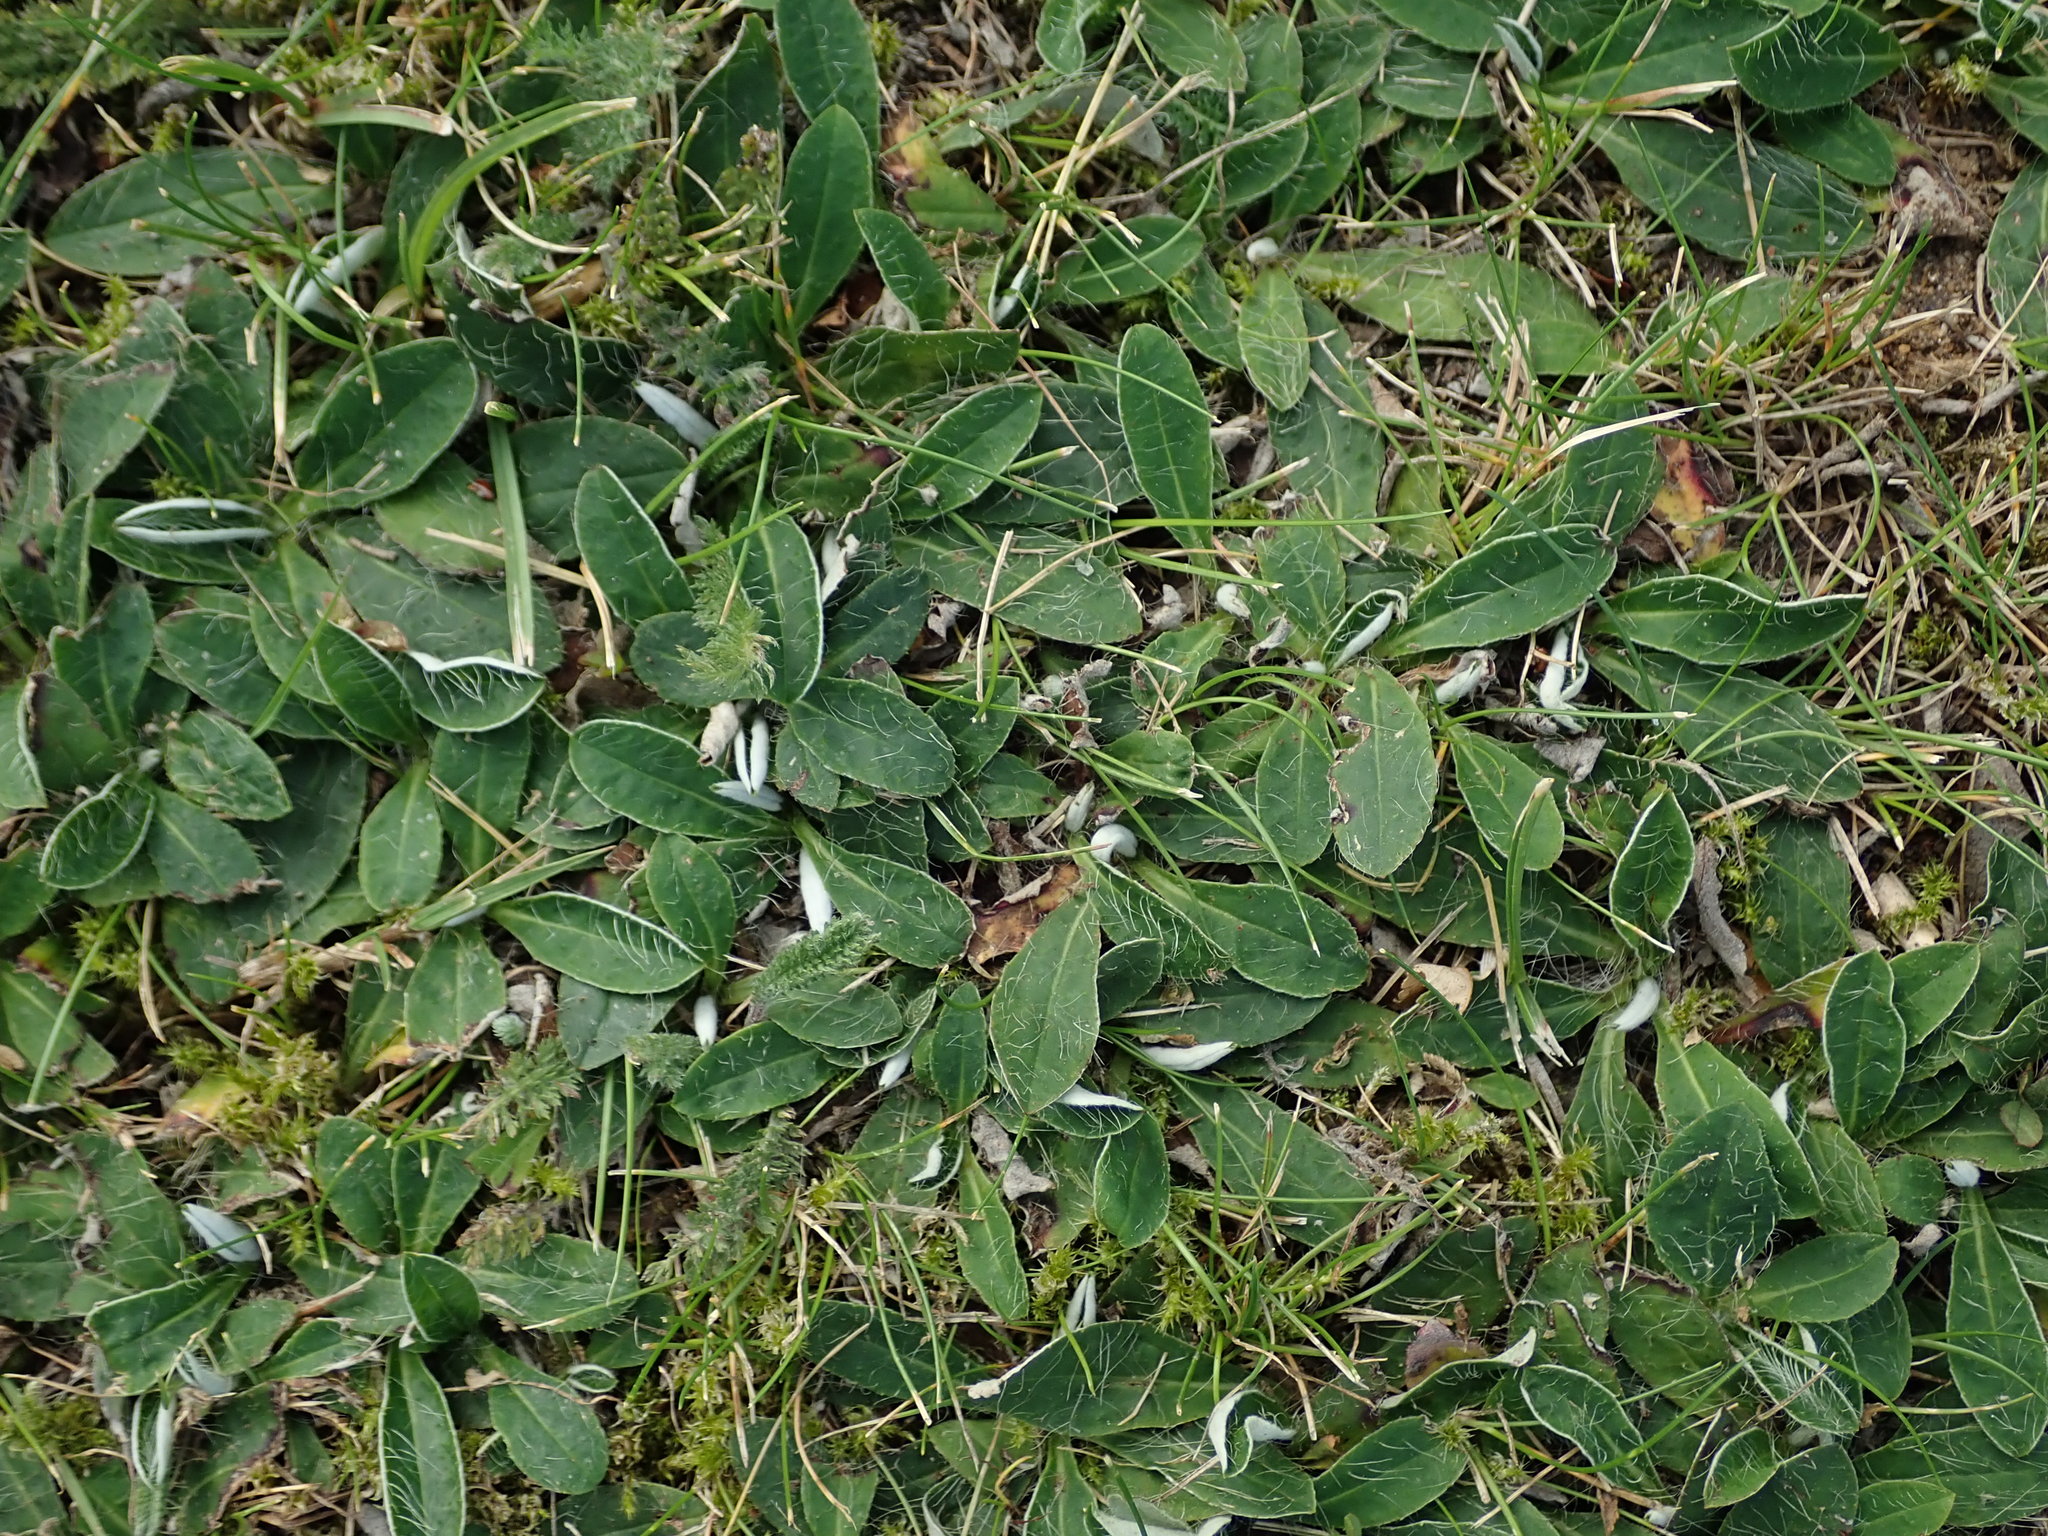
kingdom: Plantae
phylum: Tracheophyta
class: Magnoliopsida
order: Asterales
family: Asteraceae
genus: Pilosella
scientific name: Pilosella officinarum
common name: Mouse-ear hawkweed
